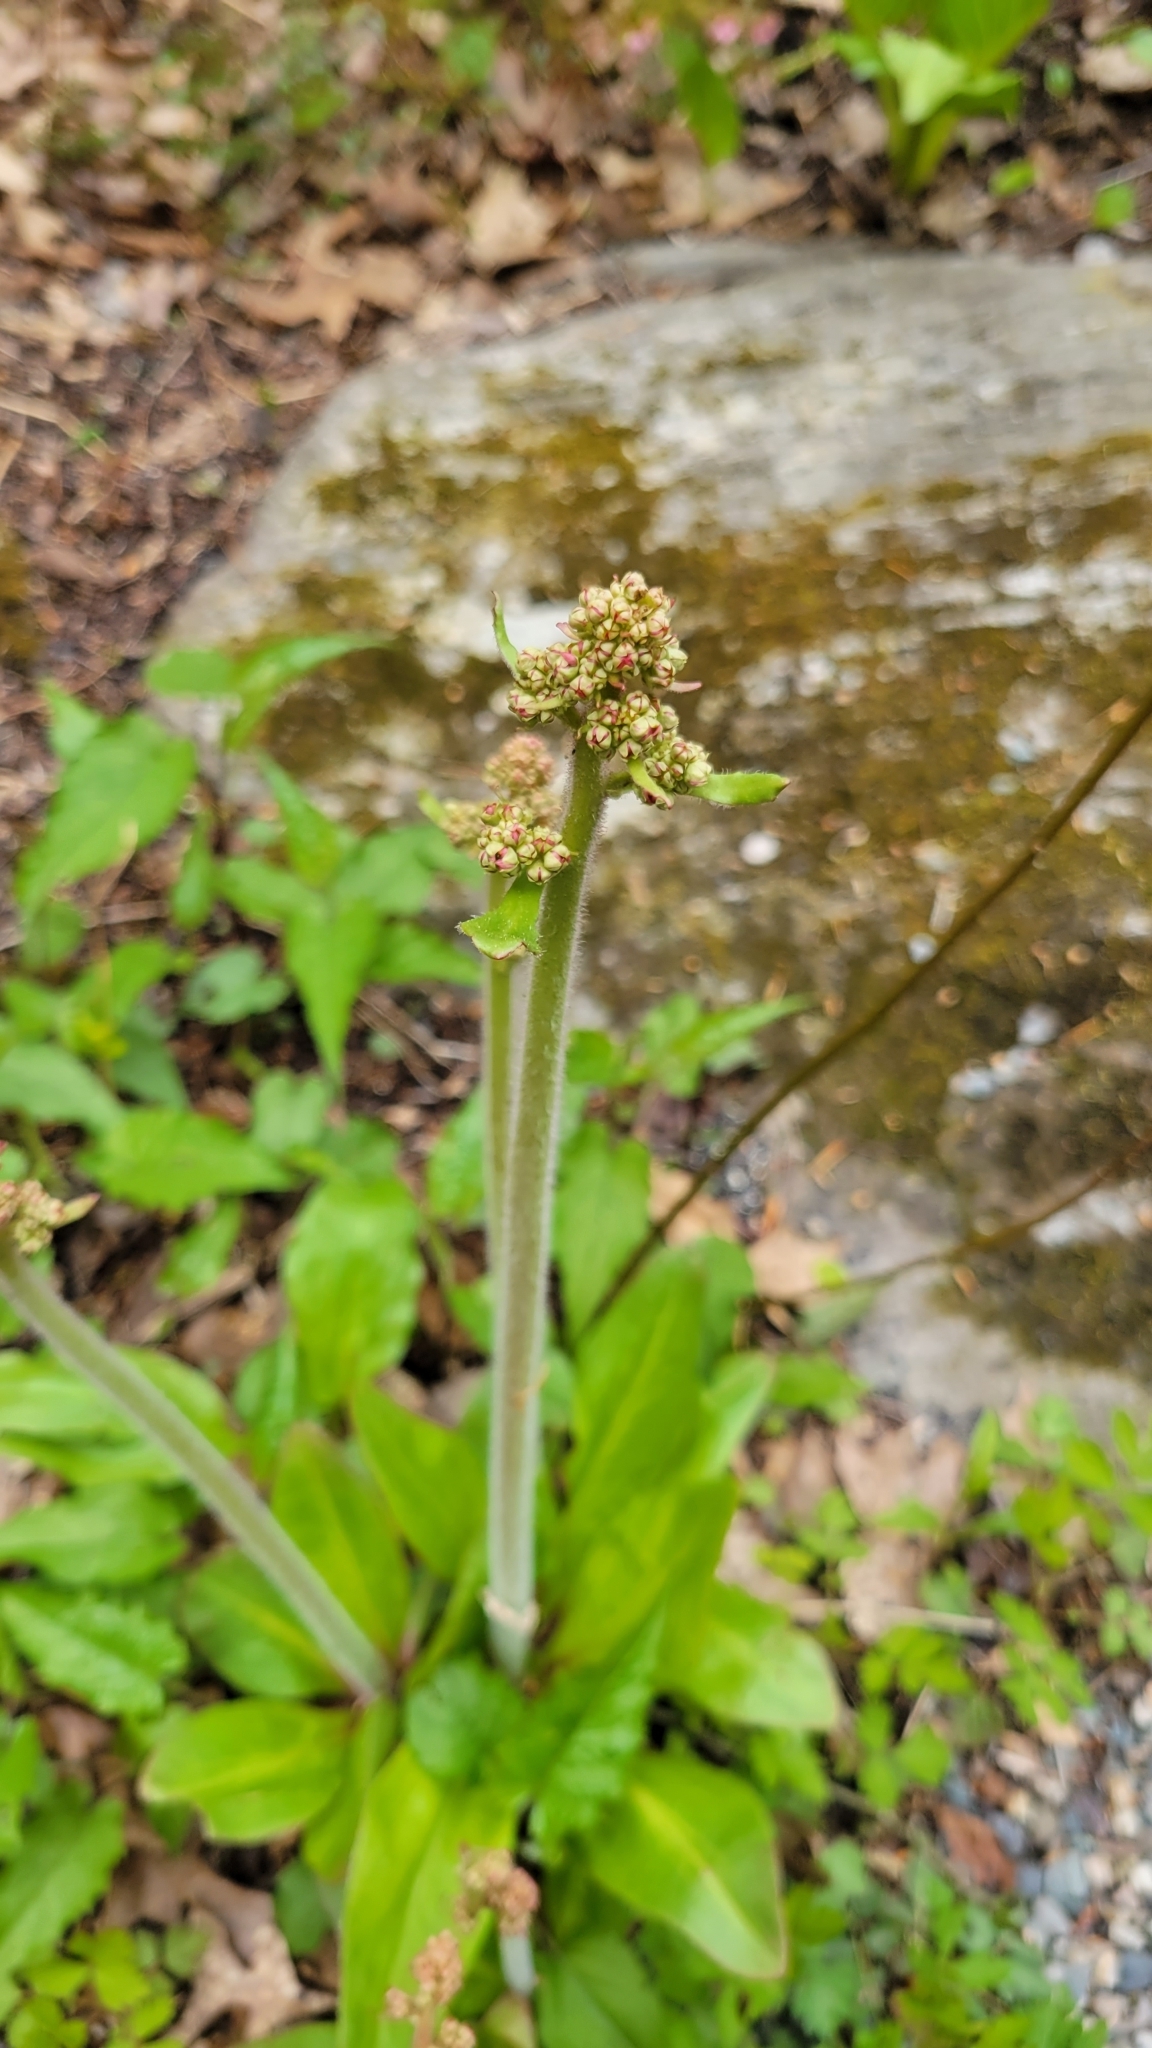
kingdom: Plantae
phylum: Tracheophyta
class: Magnoliopsida
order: Saxifragales
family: Saxifragaceae
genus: Micranthes
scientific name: Micranthes pensylvanica
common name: Marsh saxifrage
